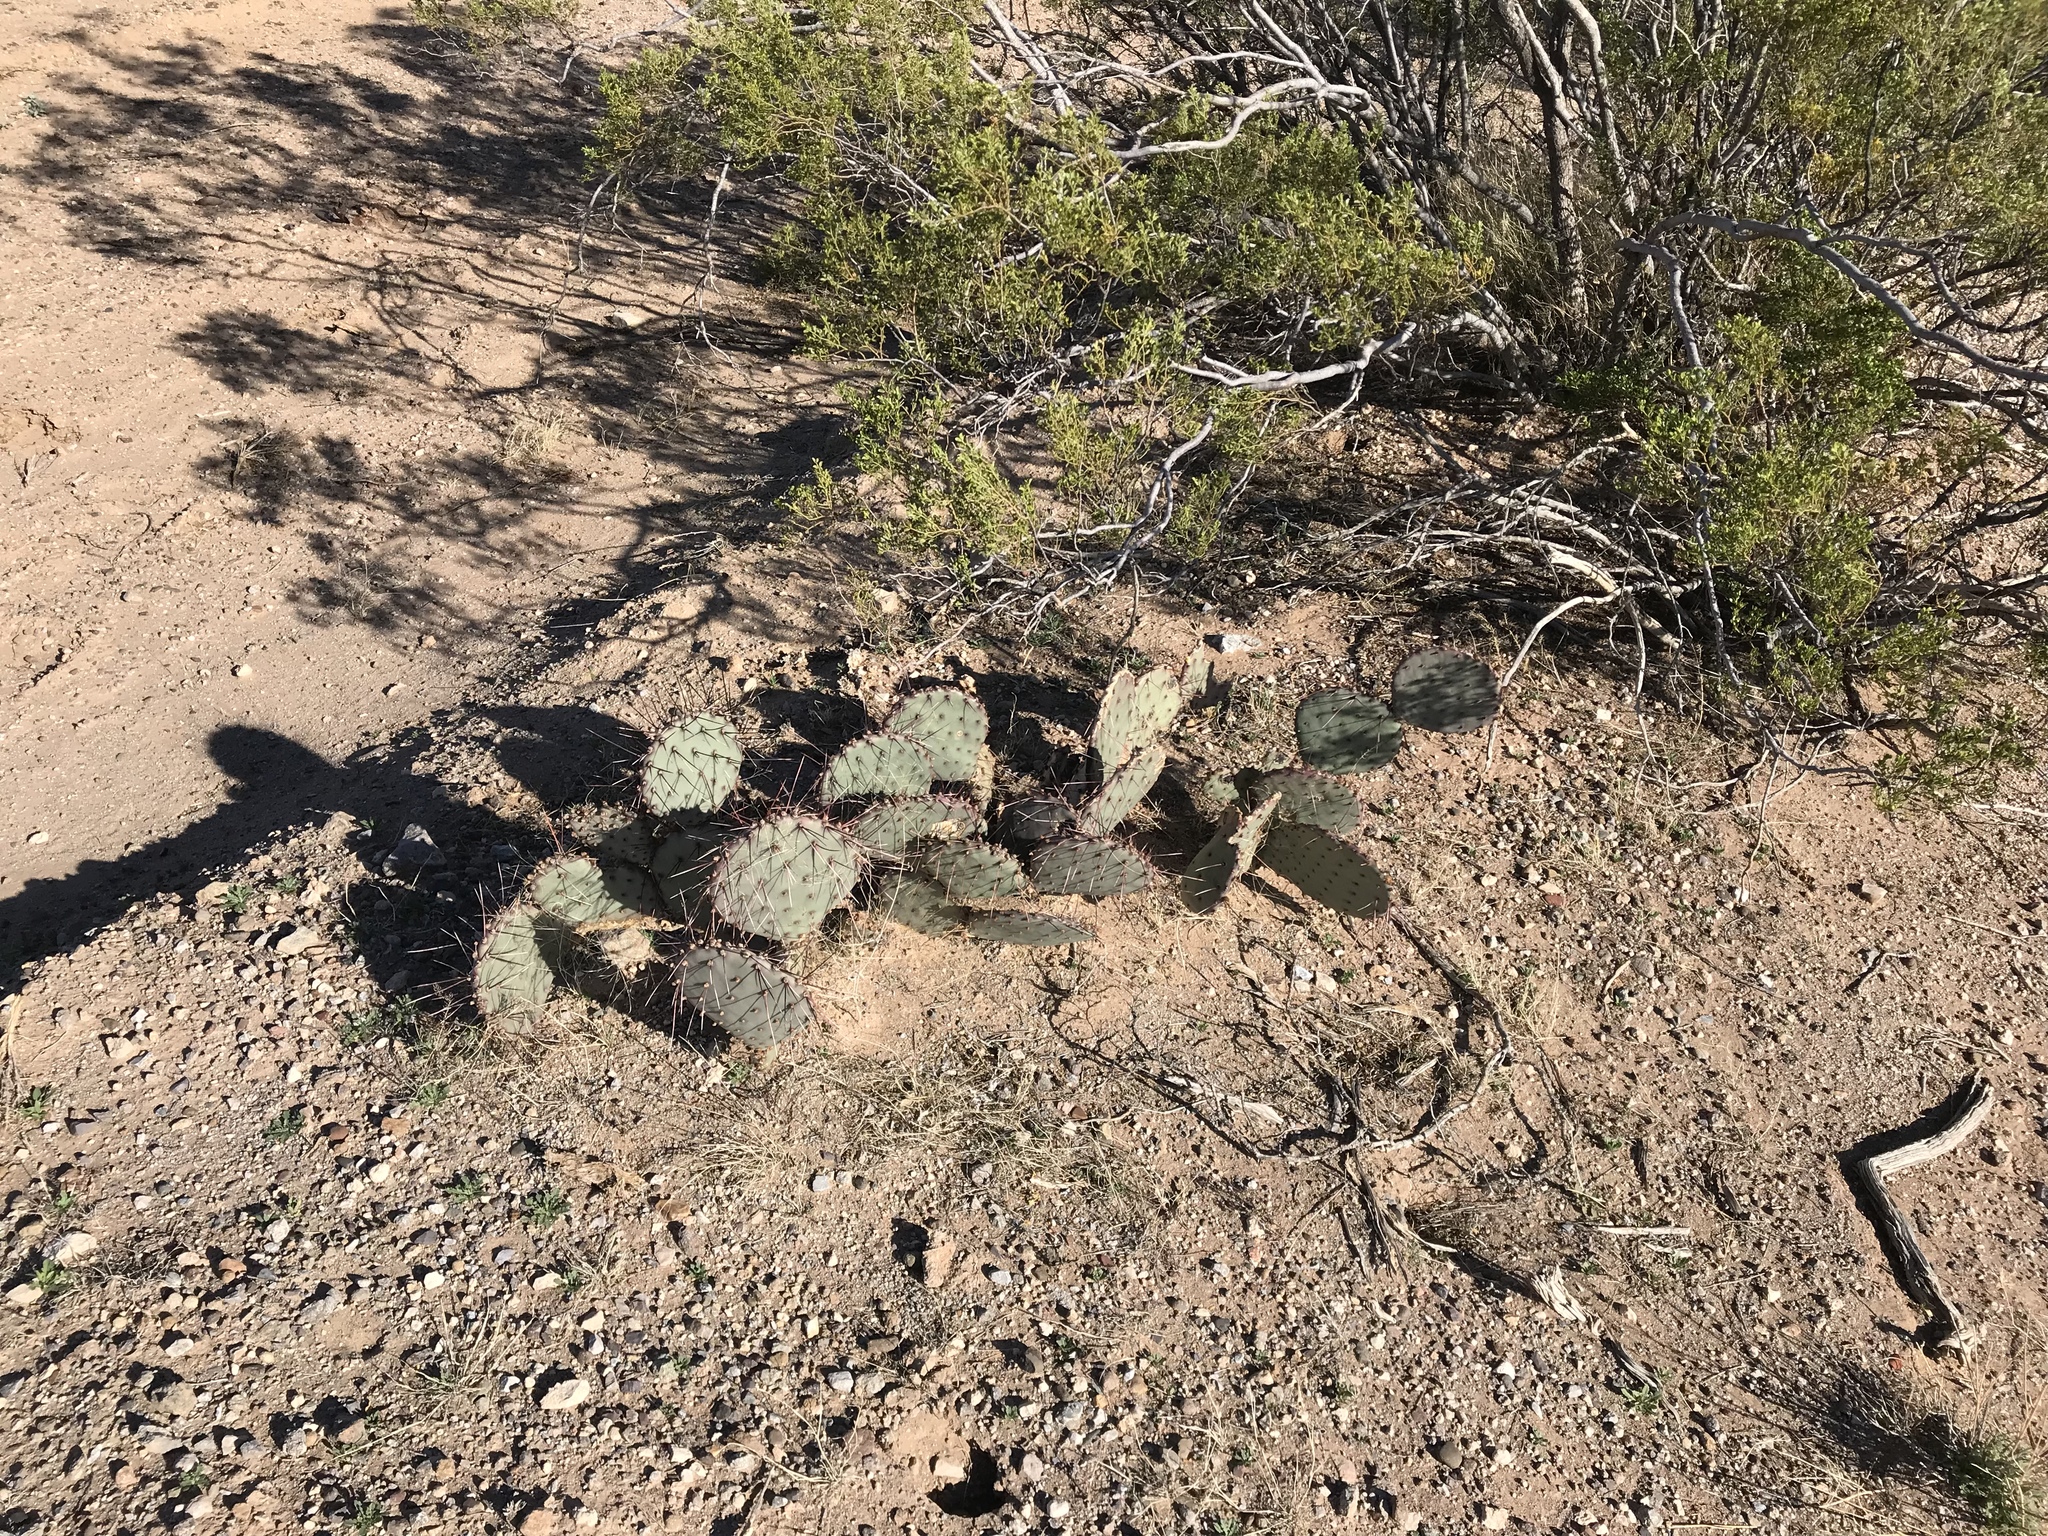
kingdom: Plantae
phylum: Tracheophyta
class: Magnoliopsida
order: Caryophyllales
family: Cactaceae
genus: Opuntia
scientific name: Opuntia macrocentra
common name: Purple prickly-pear
